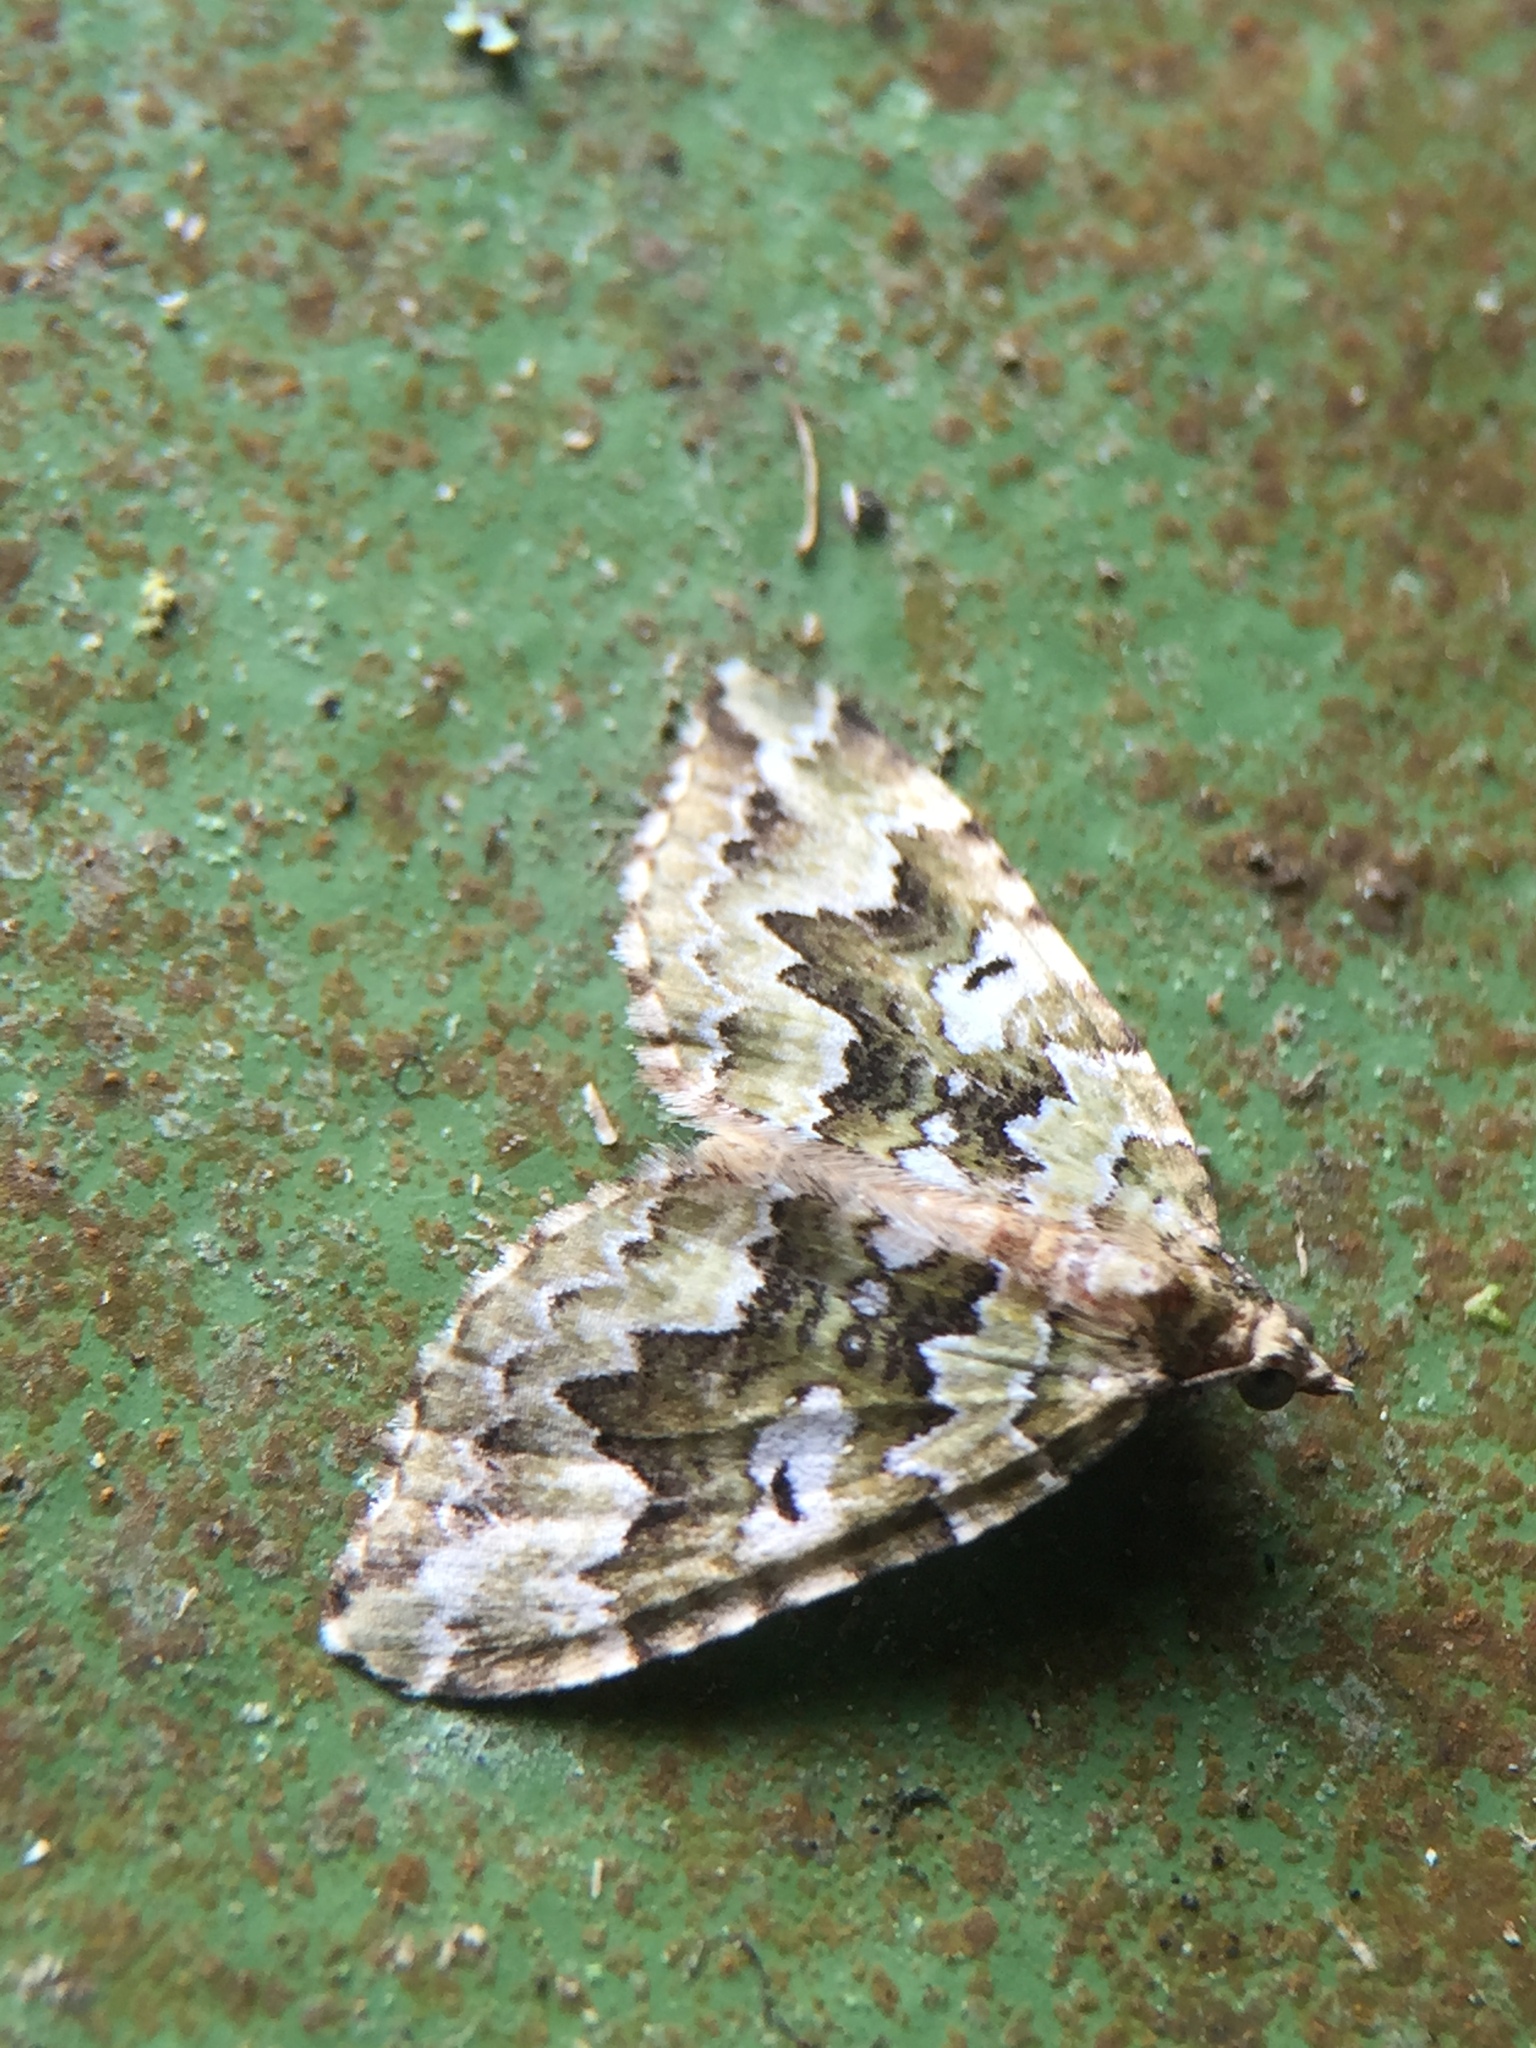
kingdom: Animalia
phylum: Arthropoda
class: Insecta
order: Lepidoptera
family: Geometridae
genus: Asaphodes
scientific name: Asaphodes beata
